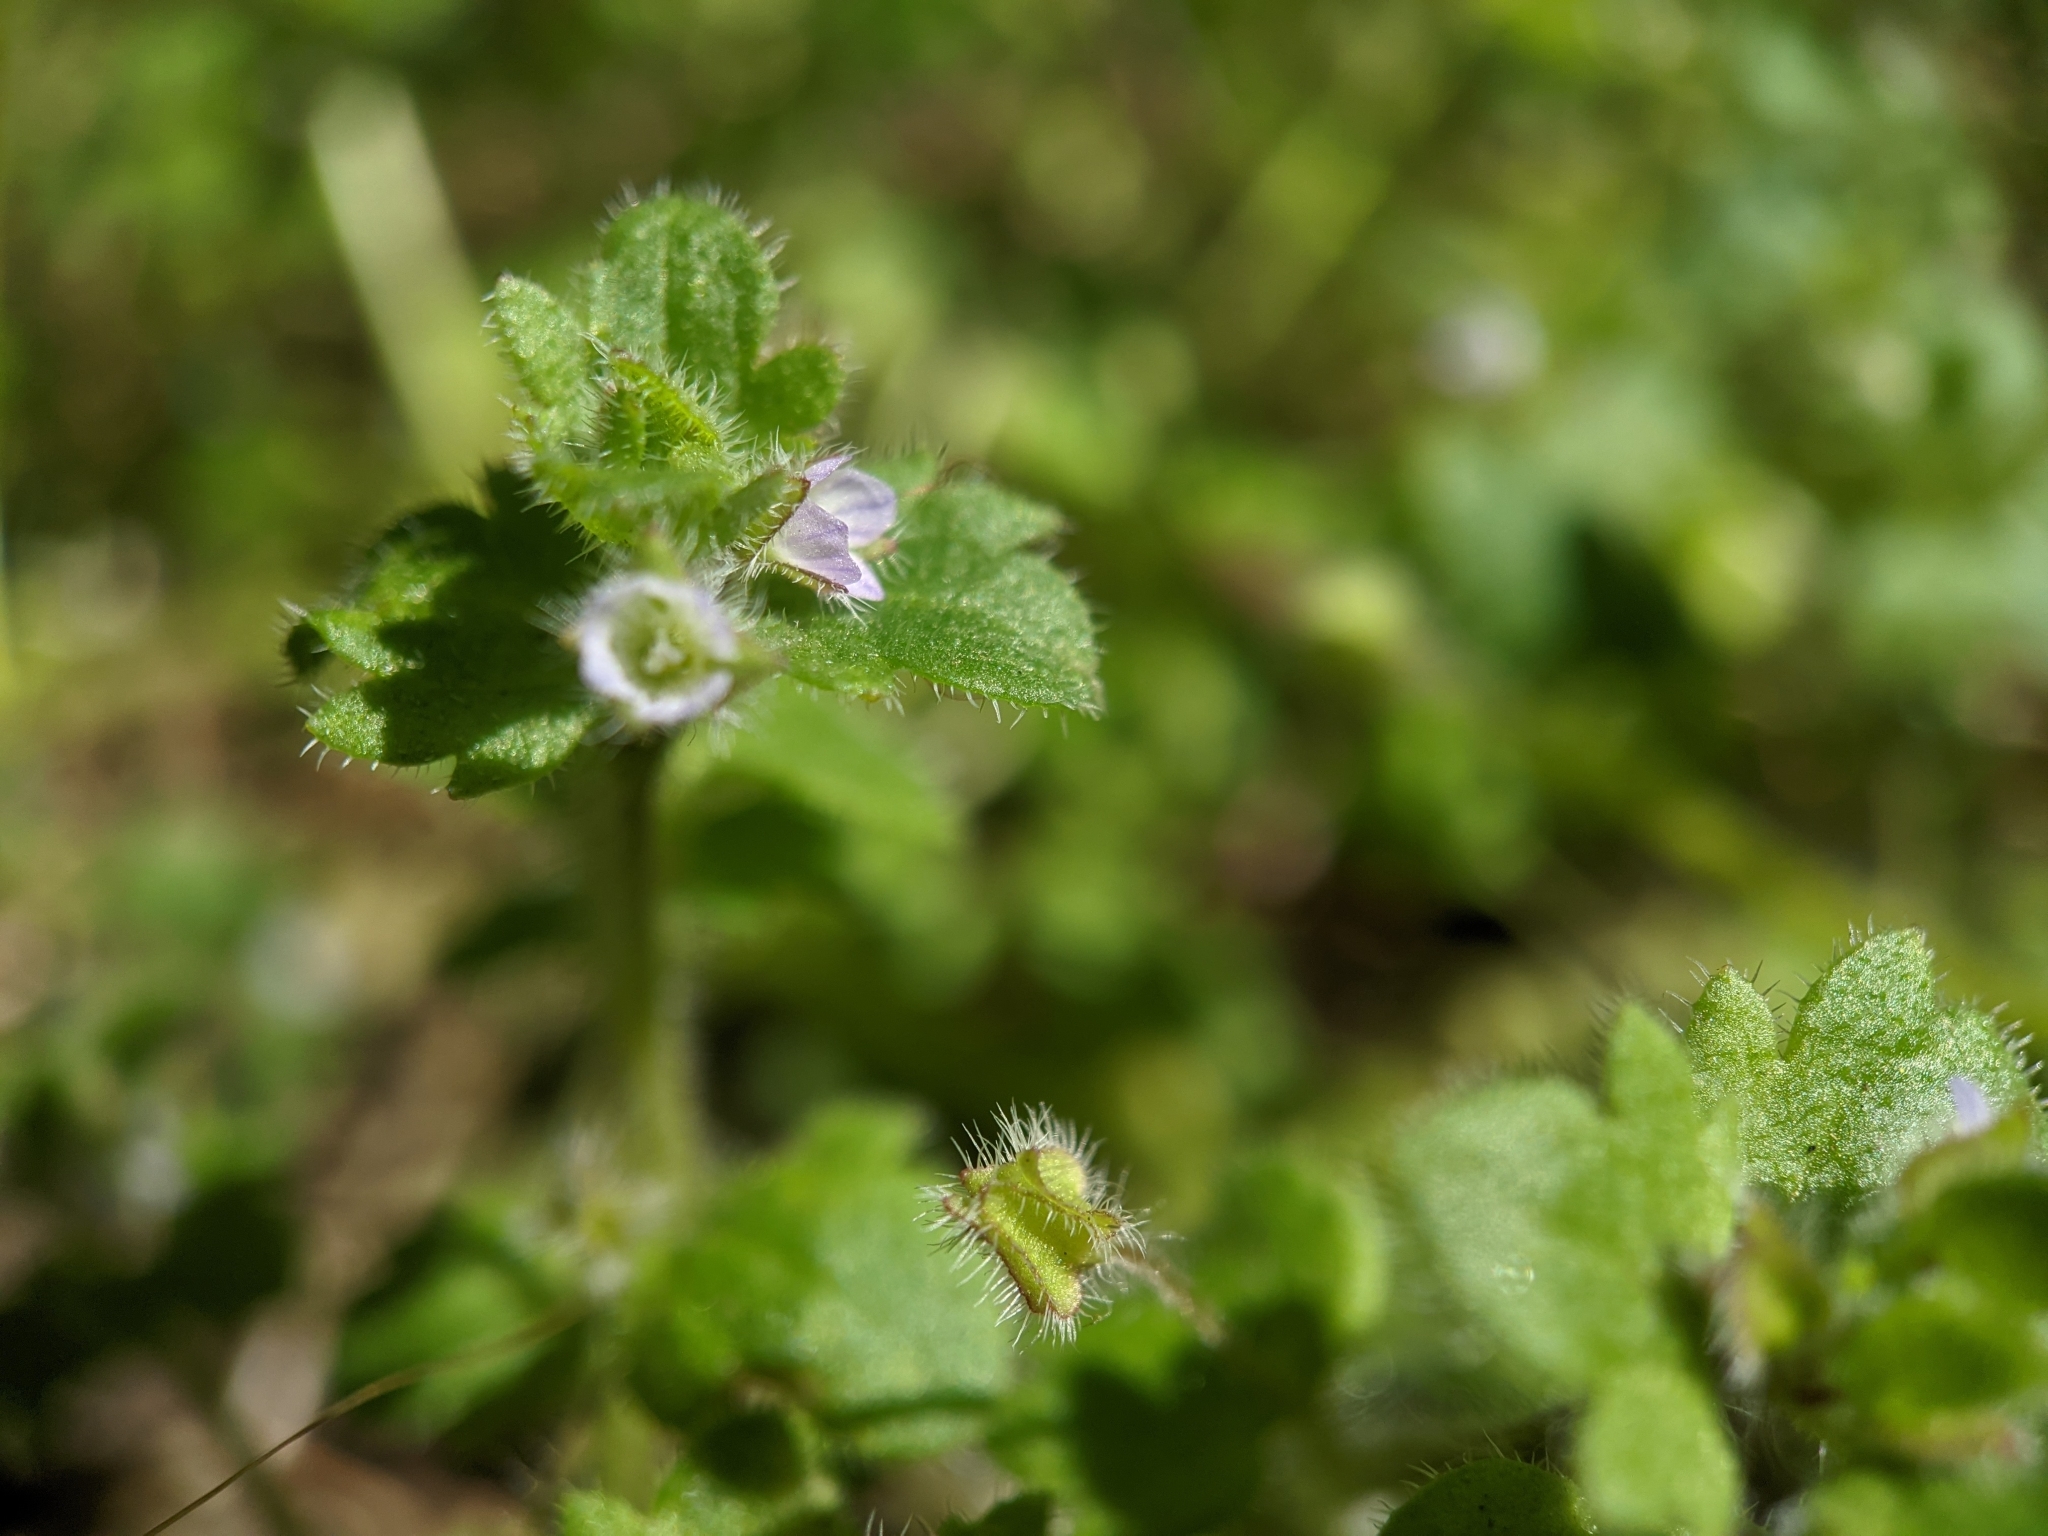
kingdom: Plantae
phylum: Tracheophyta
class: Magnoliopsida
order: Lamiales
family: Plantaginaceae
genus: Veronica
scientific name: Veronica sublobata
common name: False ivy-leaved speedwell
